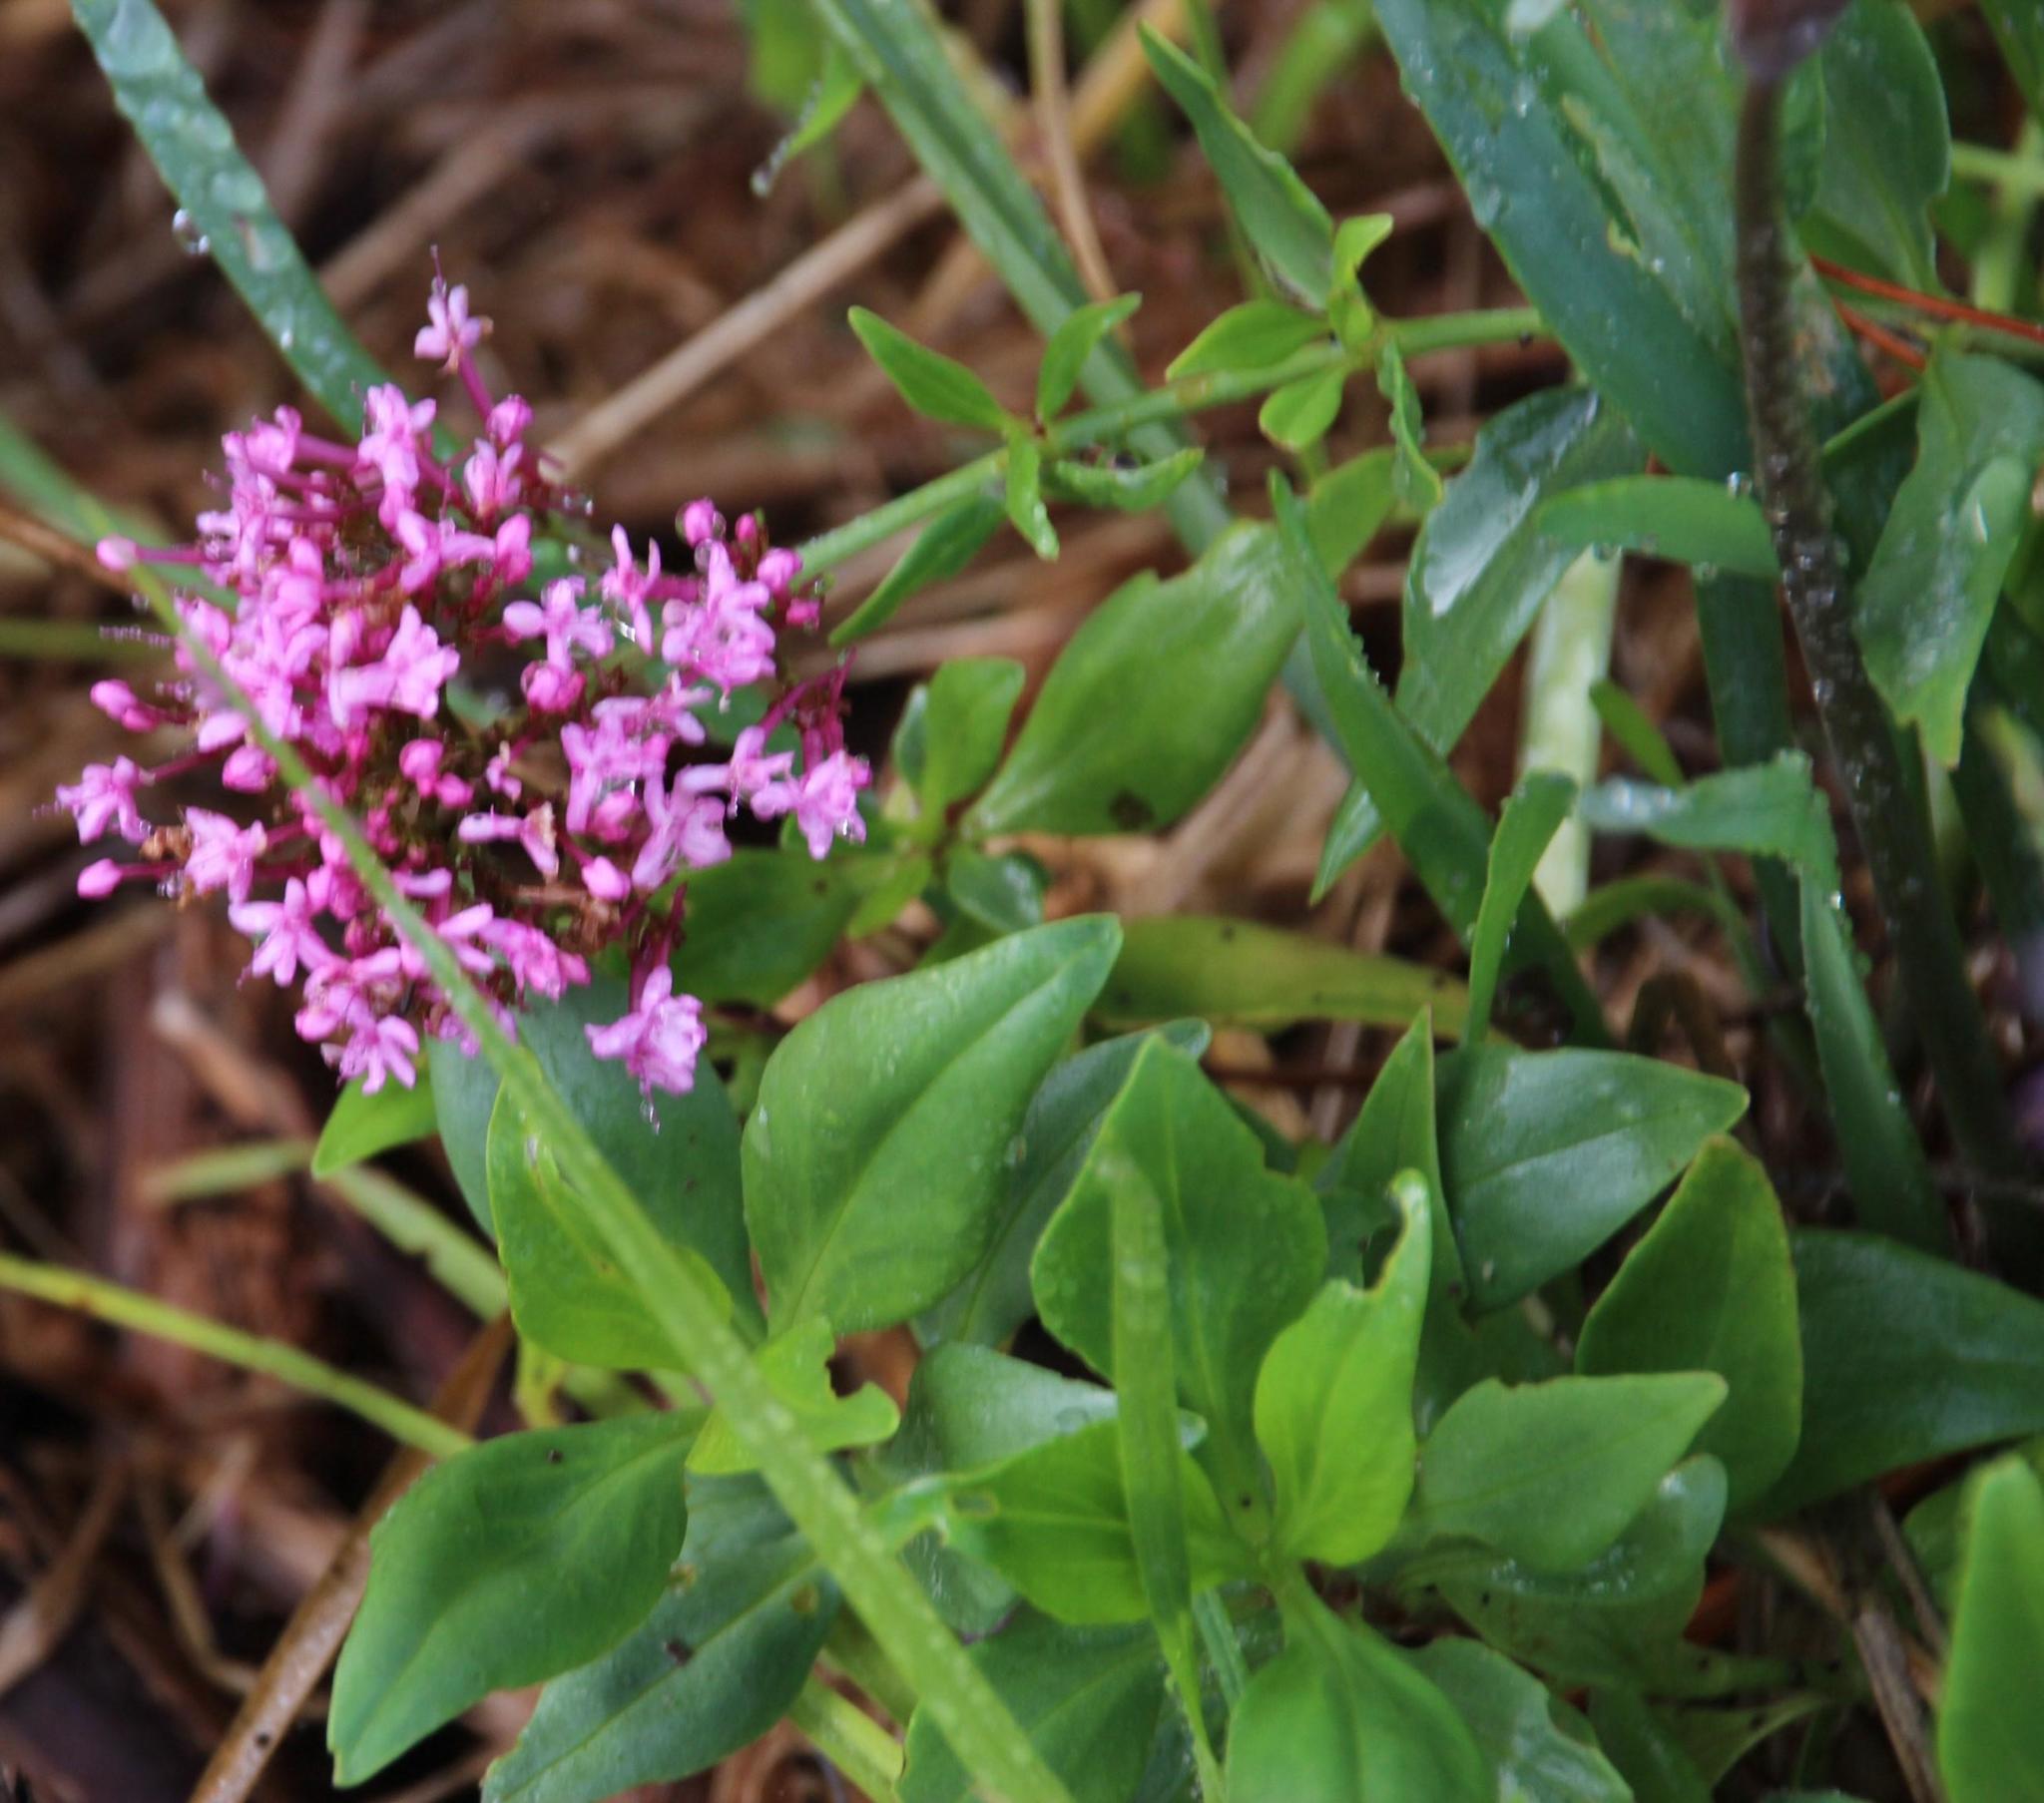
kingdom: Plantae
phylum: Tracheophyta
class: Magnoliopsida
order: Dipsacales
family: Caprifoliaceae
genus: Centranthus
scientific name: Centranthus ruber
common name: Red valerian
